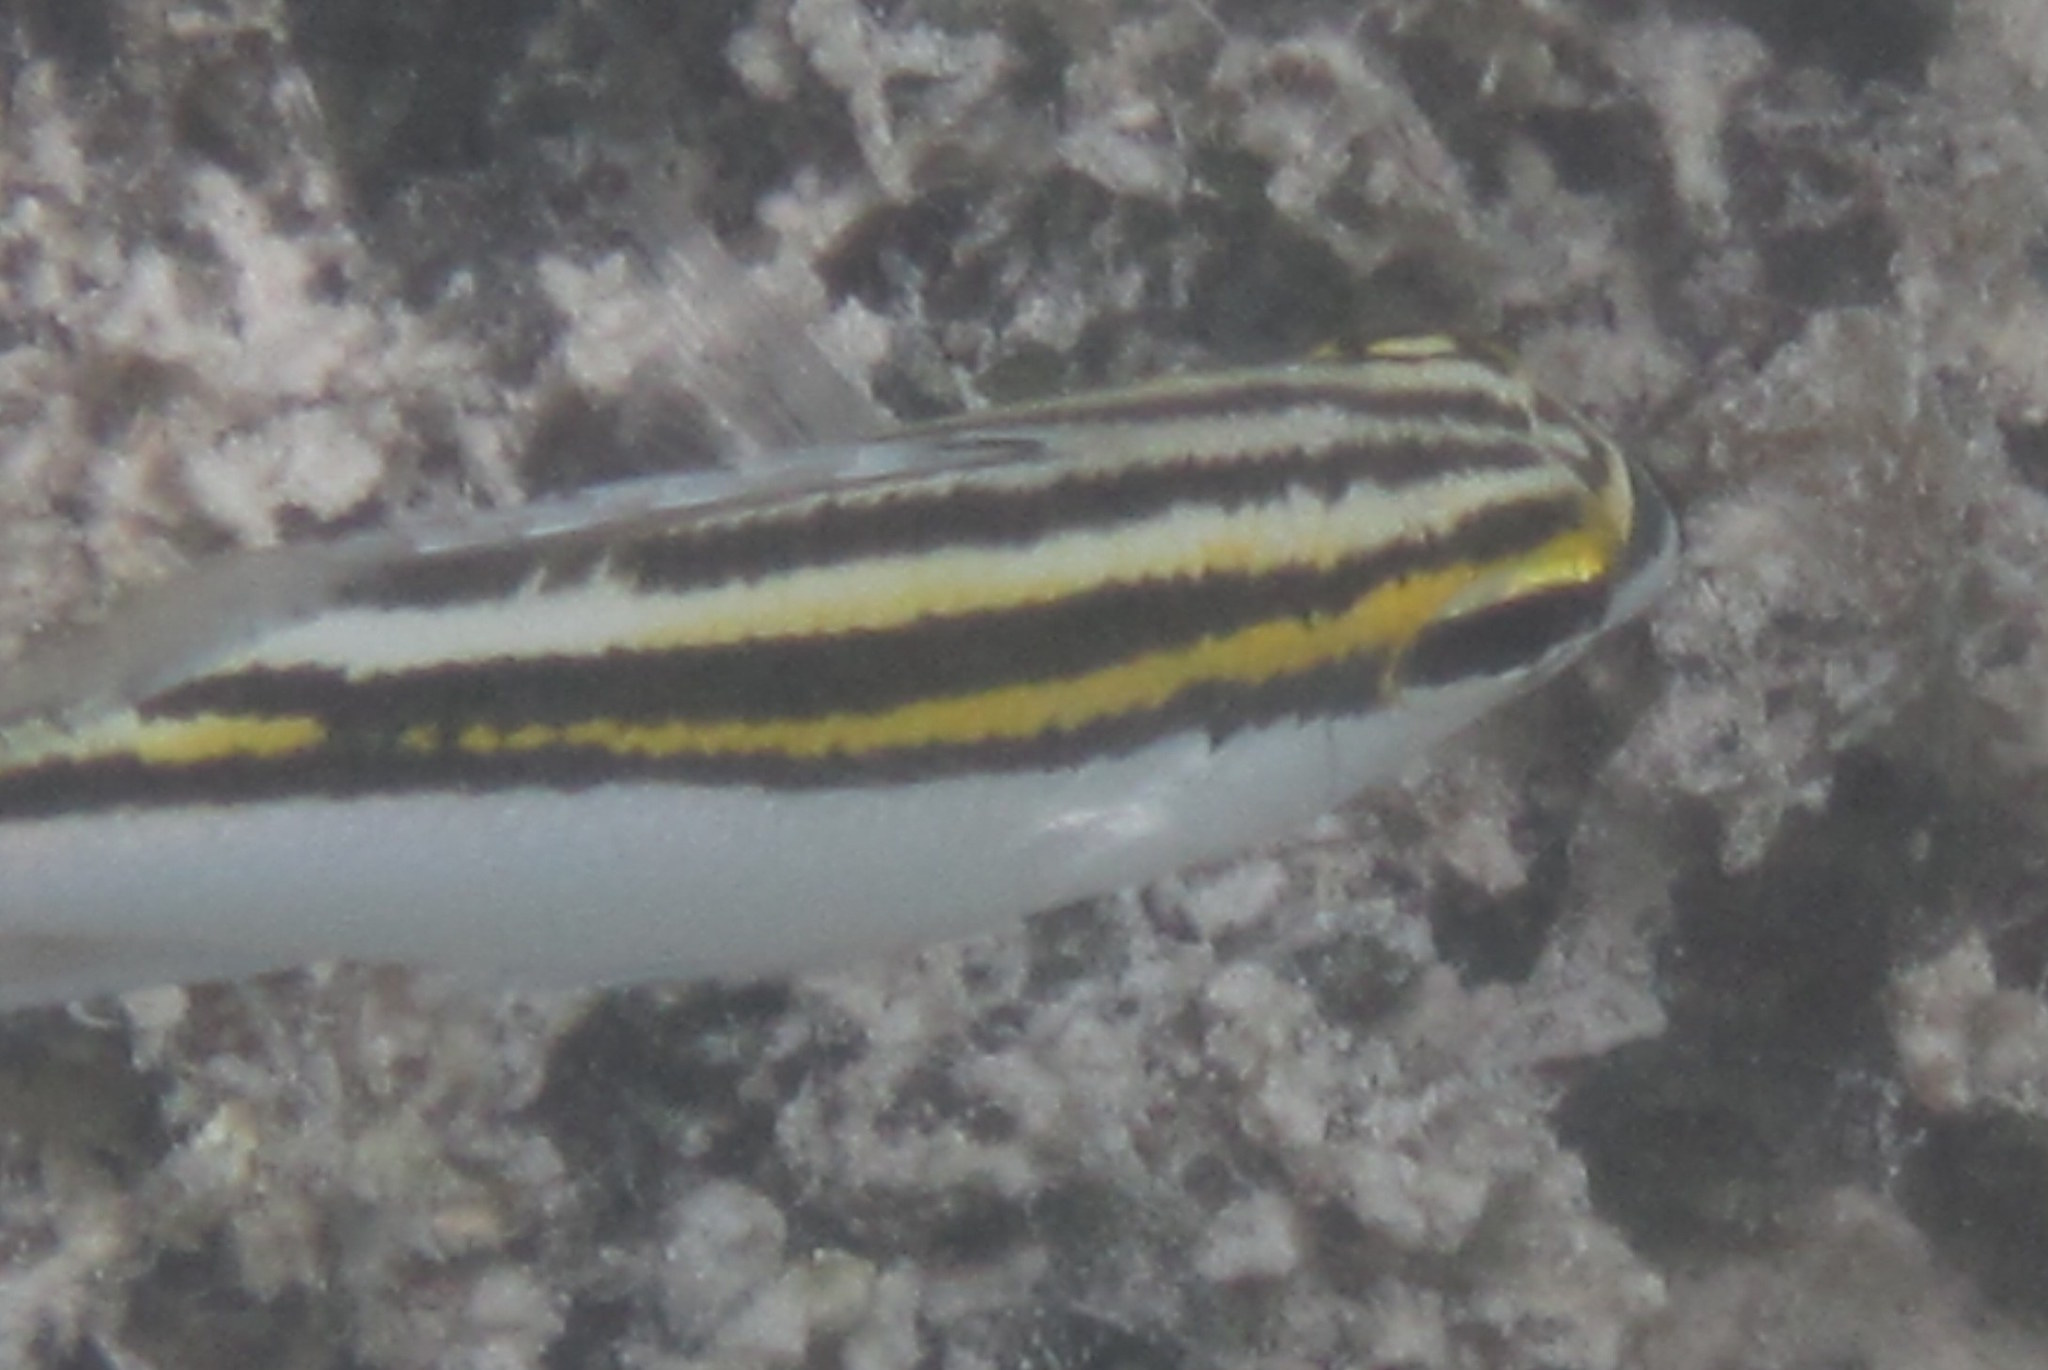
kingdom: Animalia
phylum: Chordata
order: Perciformes
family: Nemipteridae
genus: Scolopsis
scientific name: Scolopsis bilineata
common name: Two-lined monocle bream
